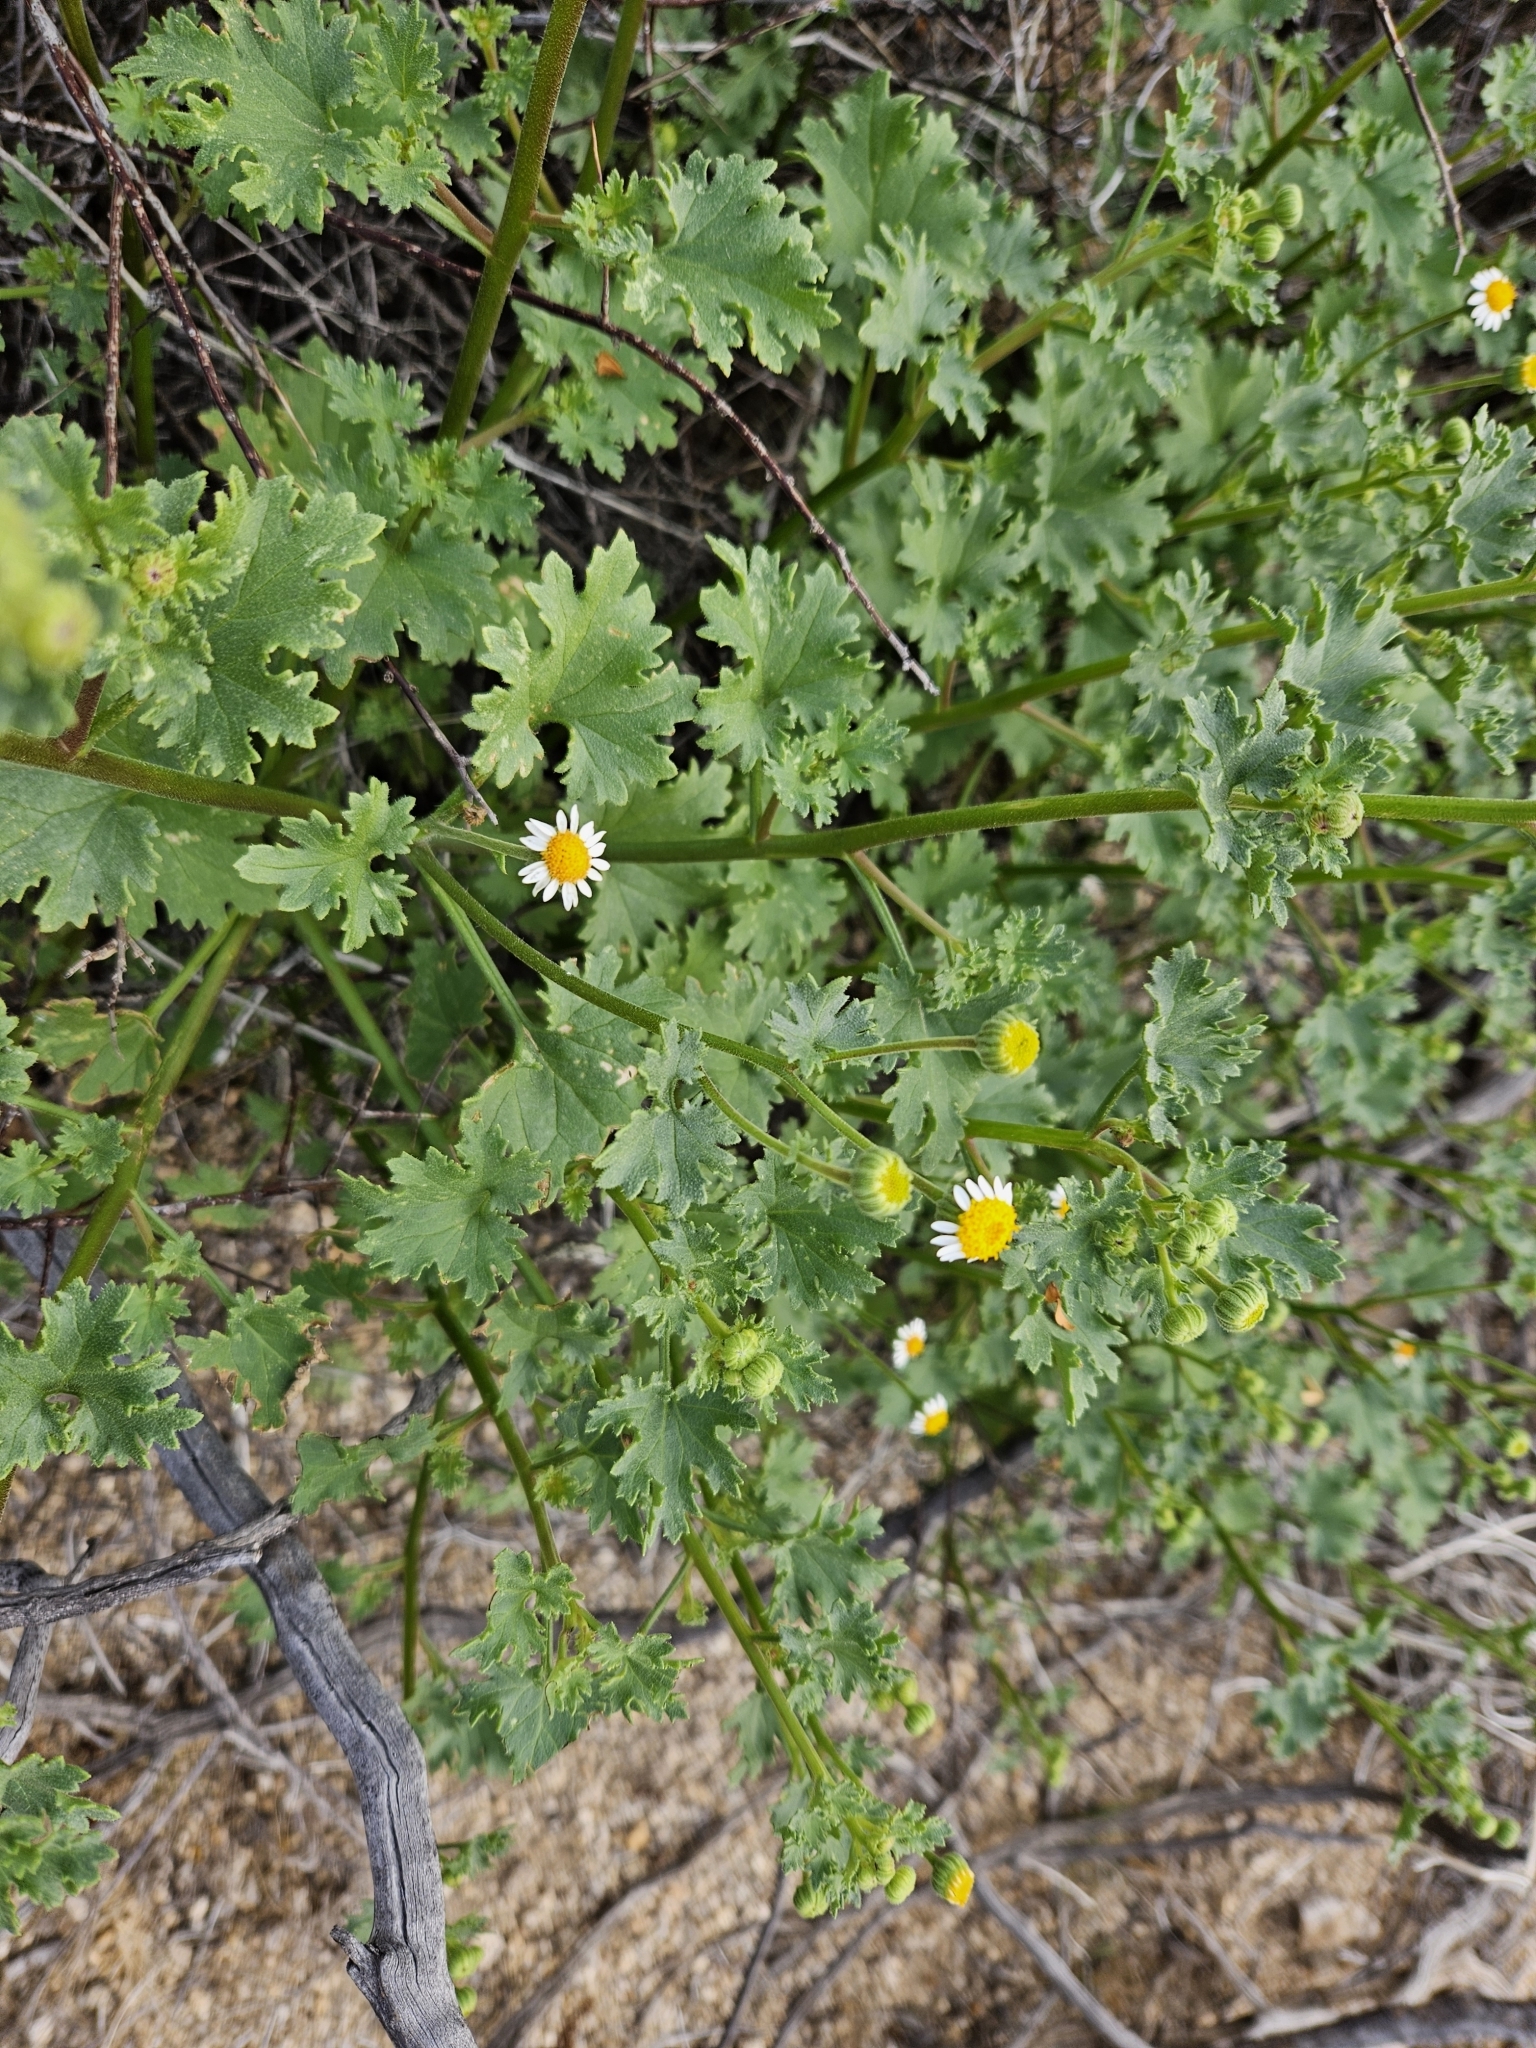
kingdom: Plantae
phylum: Tracheophyta
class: Magnoliopsida
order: Asterales
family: Asteraceae
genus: Laphamia
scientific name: Laphamia emoryi
